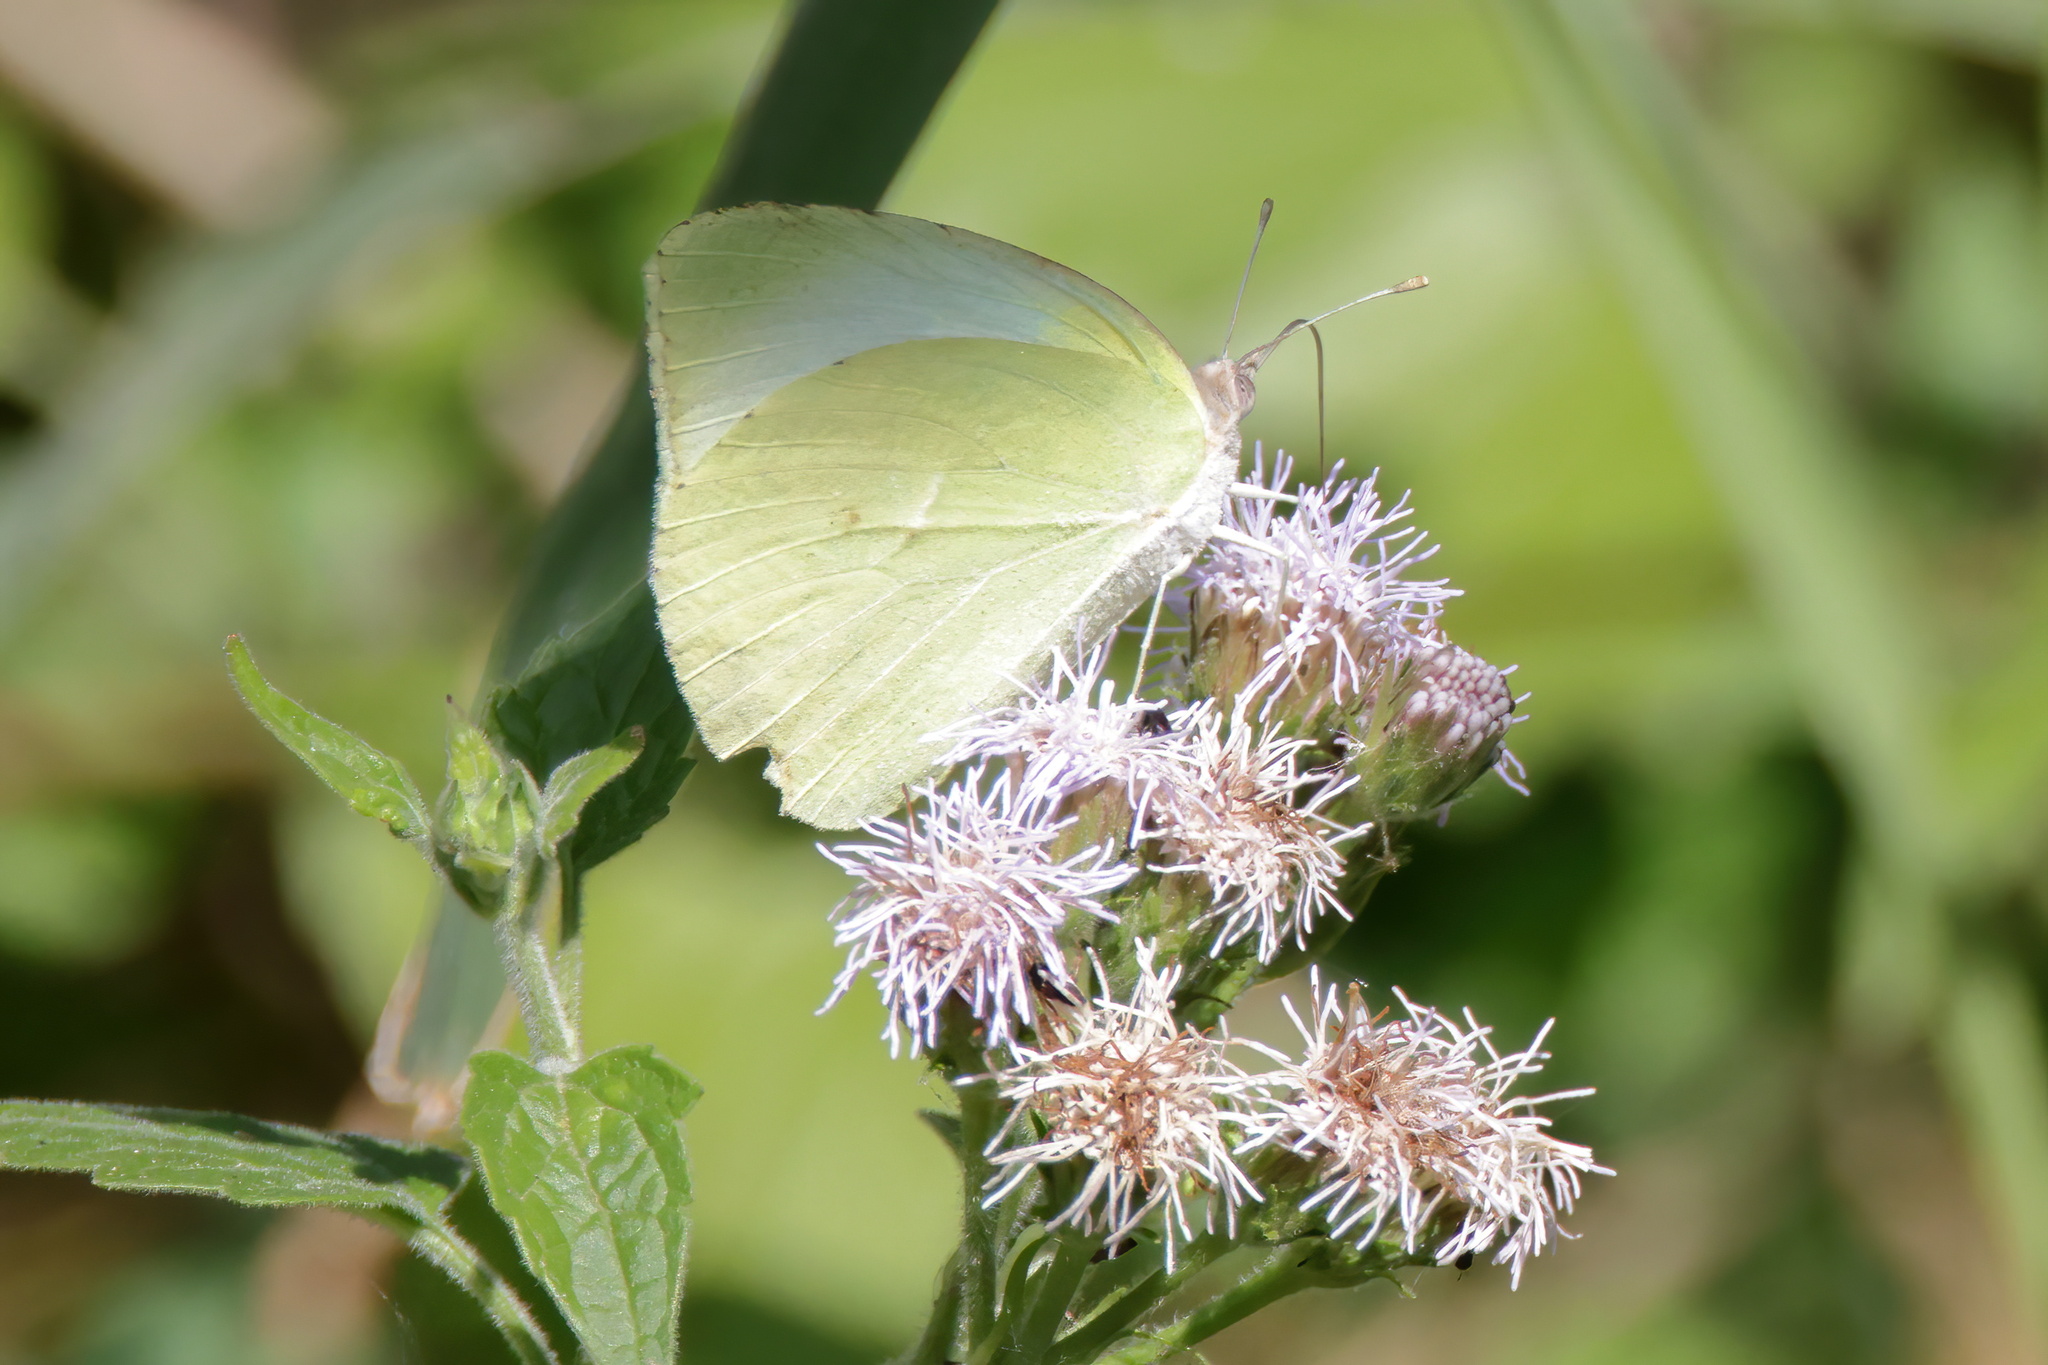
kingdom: Animalia
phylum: Arthropoda
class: Insecta
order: Lepidoptera
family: Pieridae
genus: Kricogonia
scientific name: Kricogonia lyside
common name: Guayacan sulphur,
